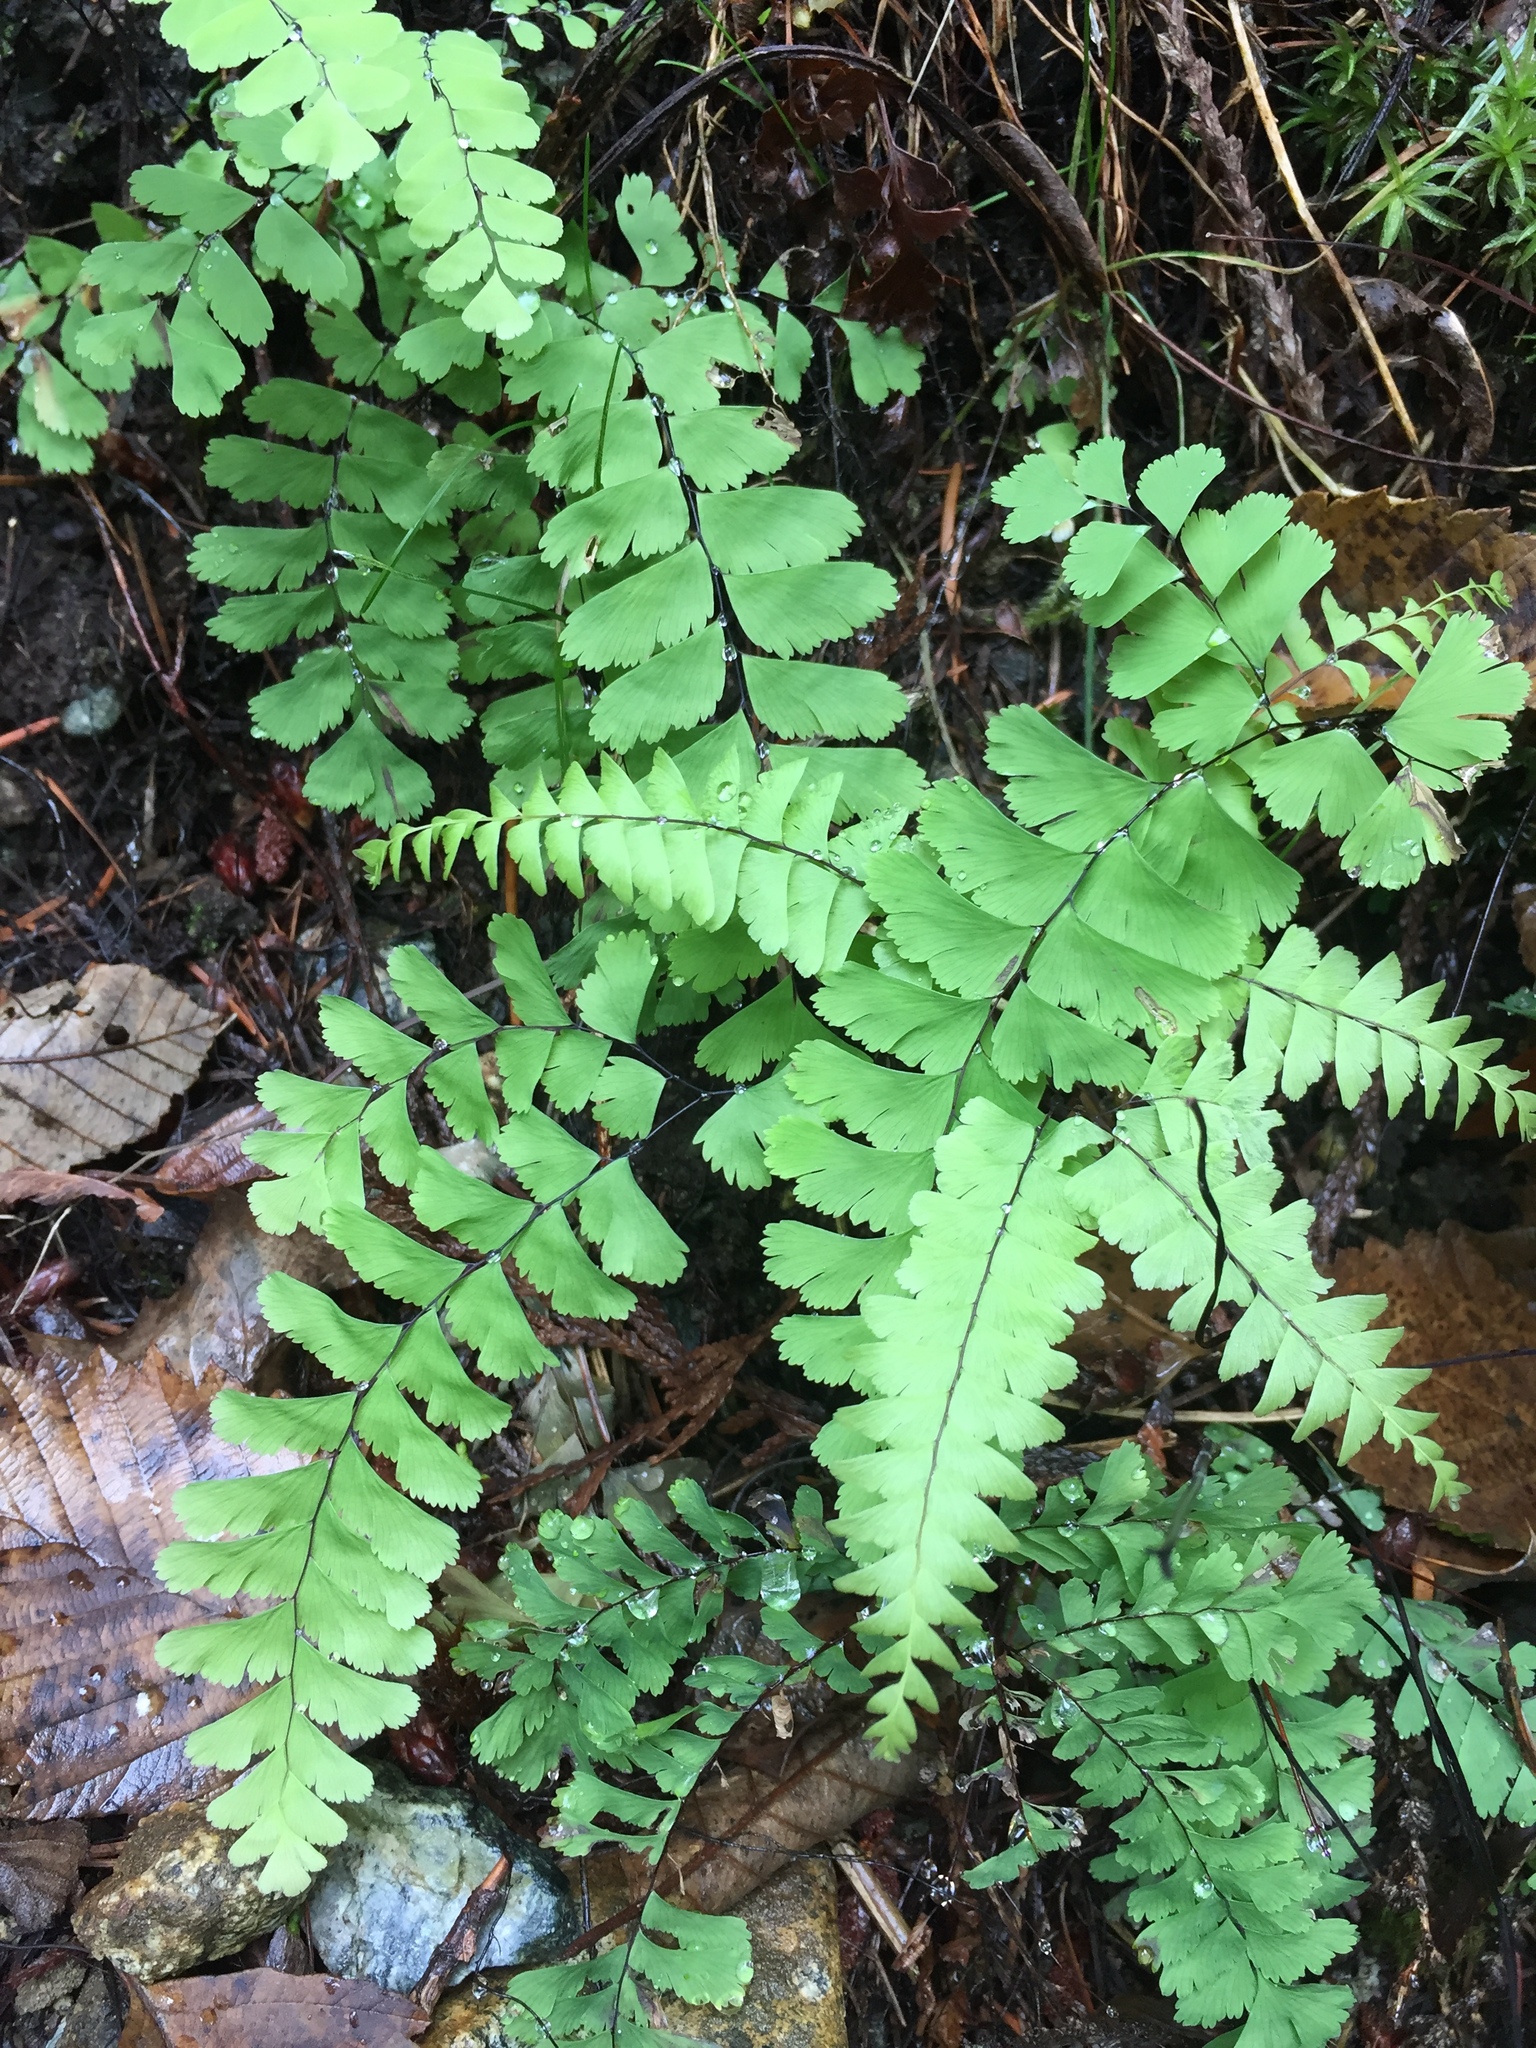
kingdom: Plantae
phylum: Tracheophyta
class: Polypodiopsida
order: Polypodiales
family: Pteridaceae
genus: Adiantum
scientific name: Adiantum aleuticum
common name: Aleutian maidenhair fern
